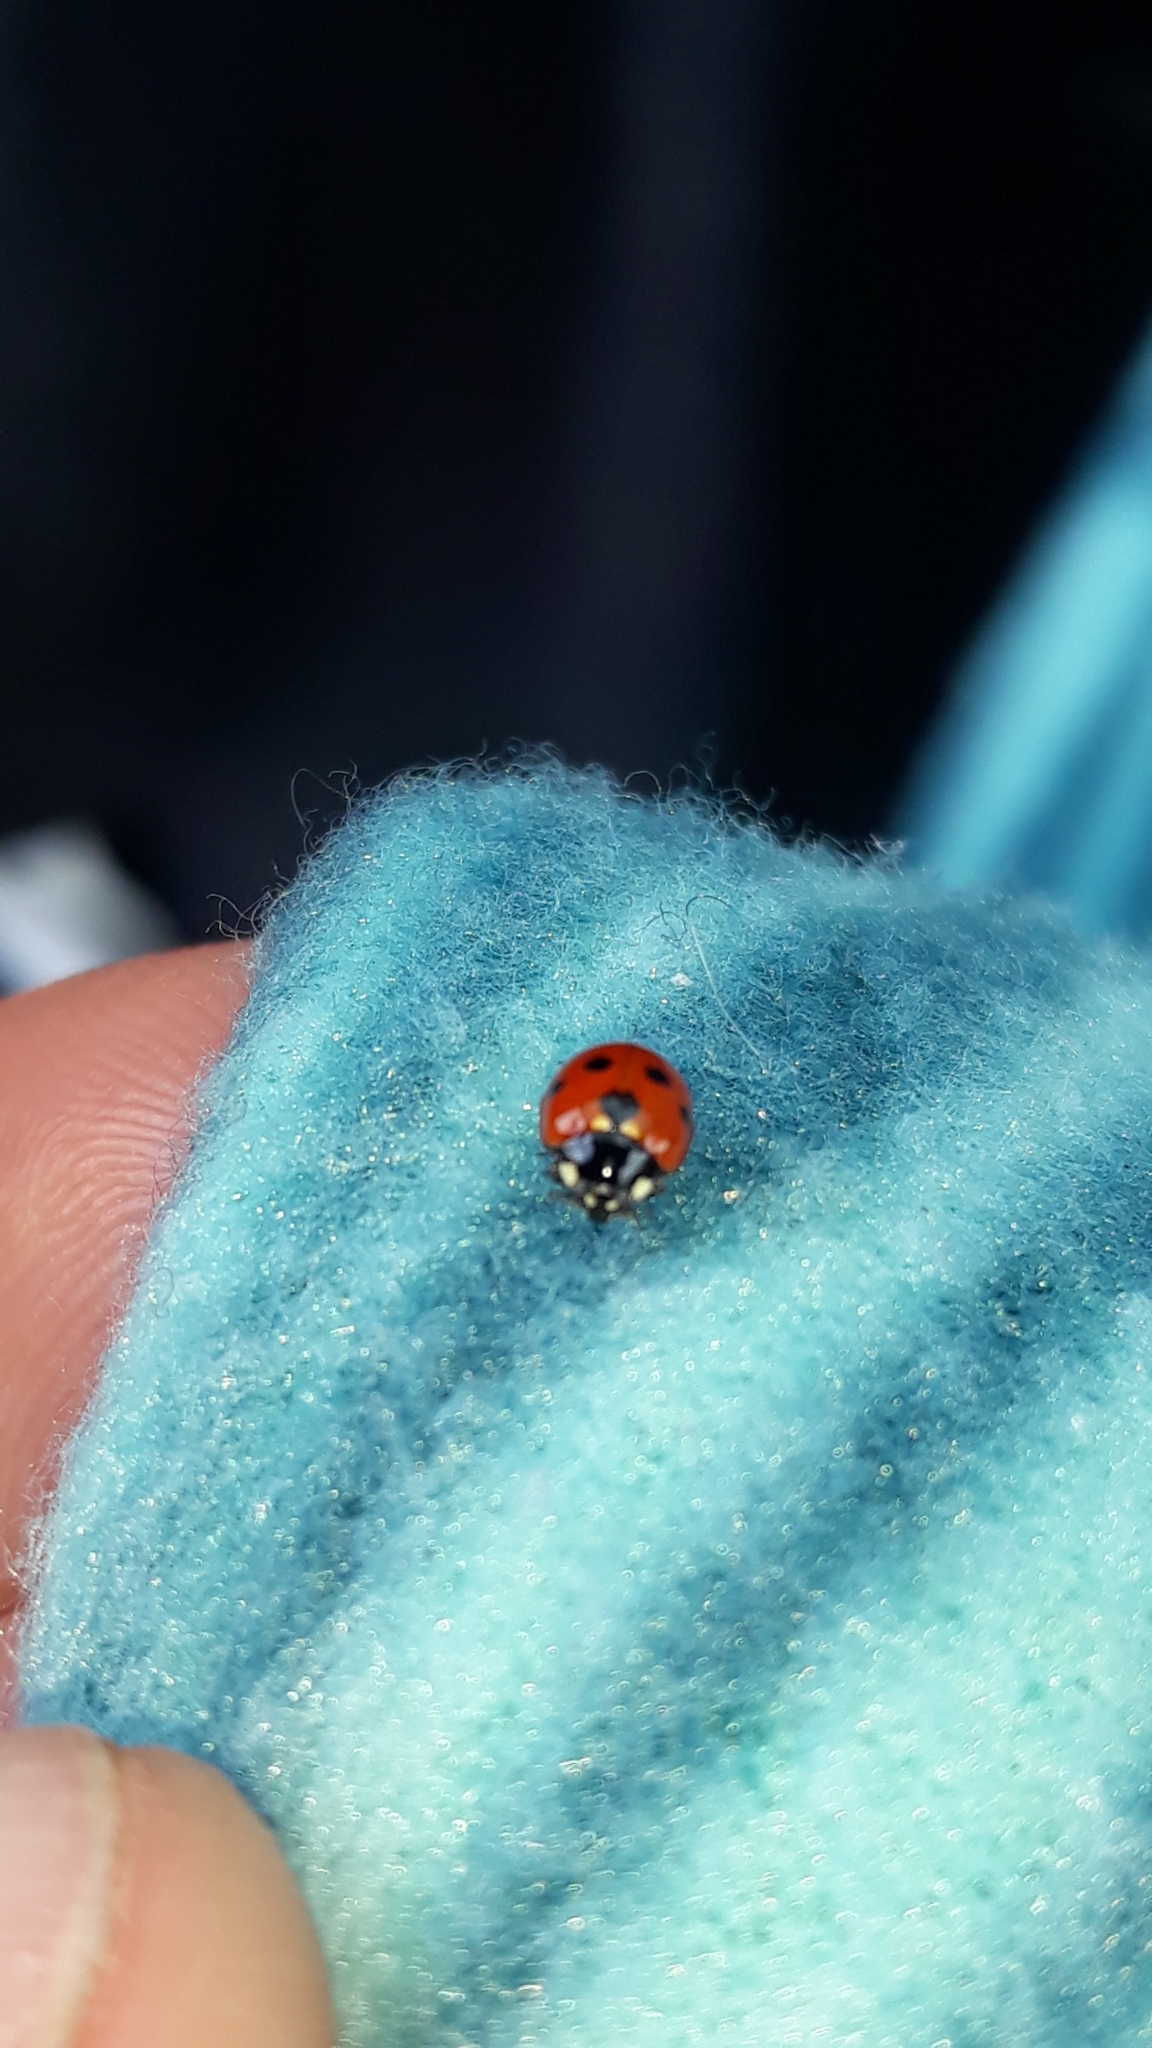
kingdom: Animalia
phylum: Arthropoda
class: Insecta
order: Coleoptera
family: Coccinellidae
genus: Coccinella
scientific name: Coccinella undecimpunctata
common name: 11-spot ladybird
